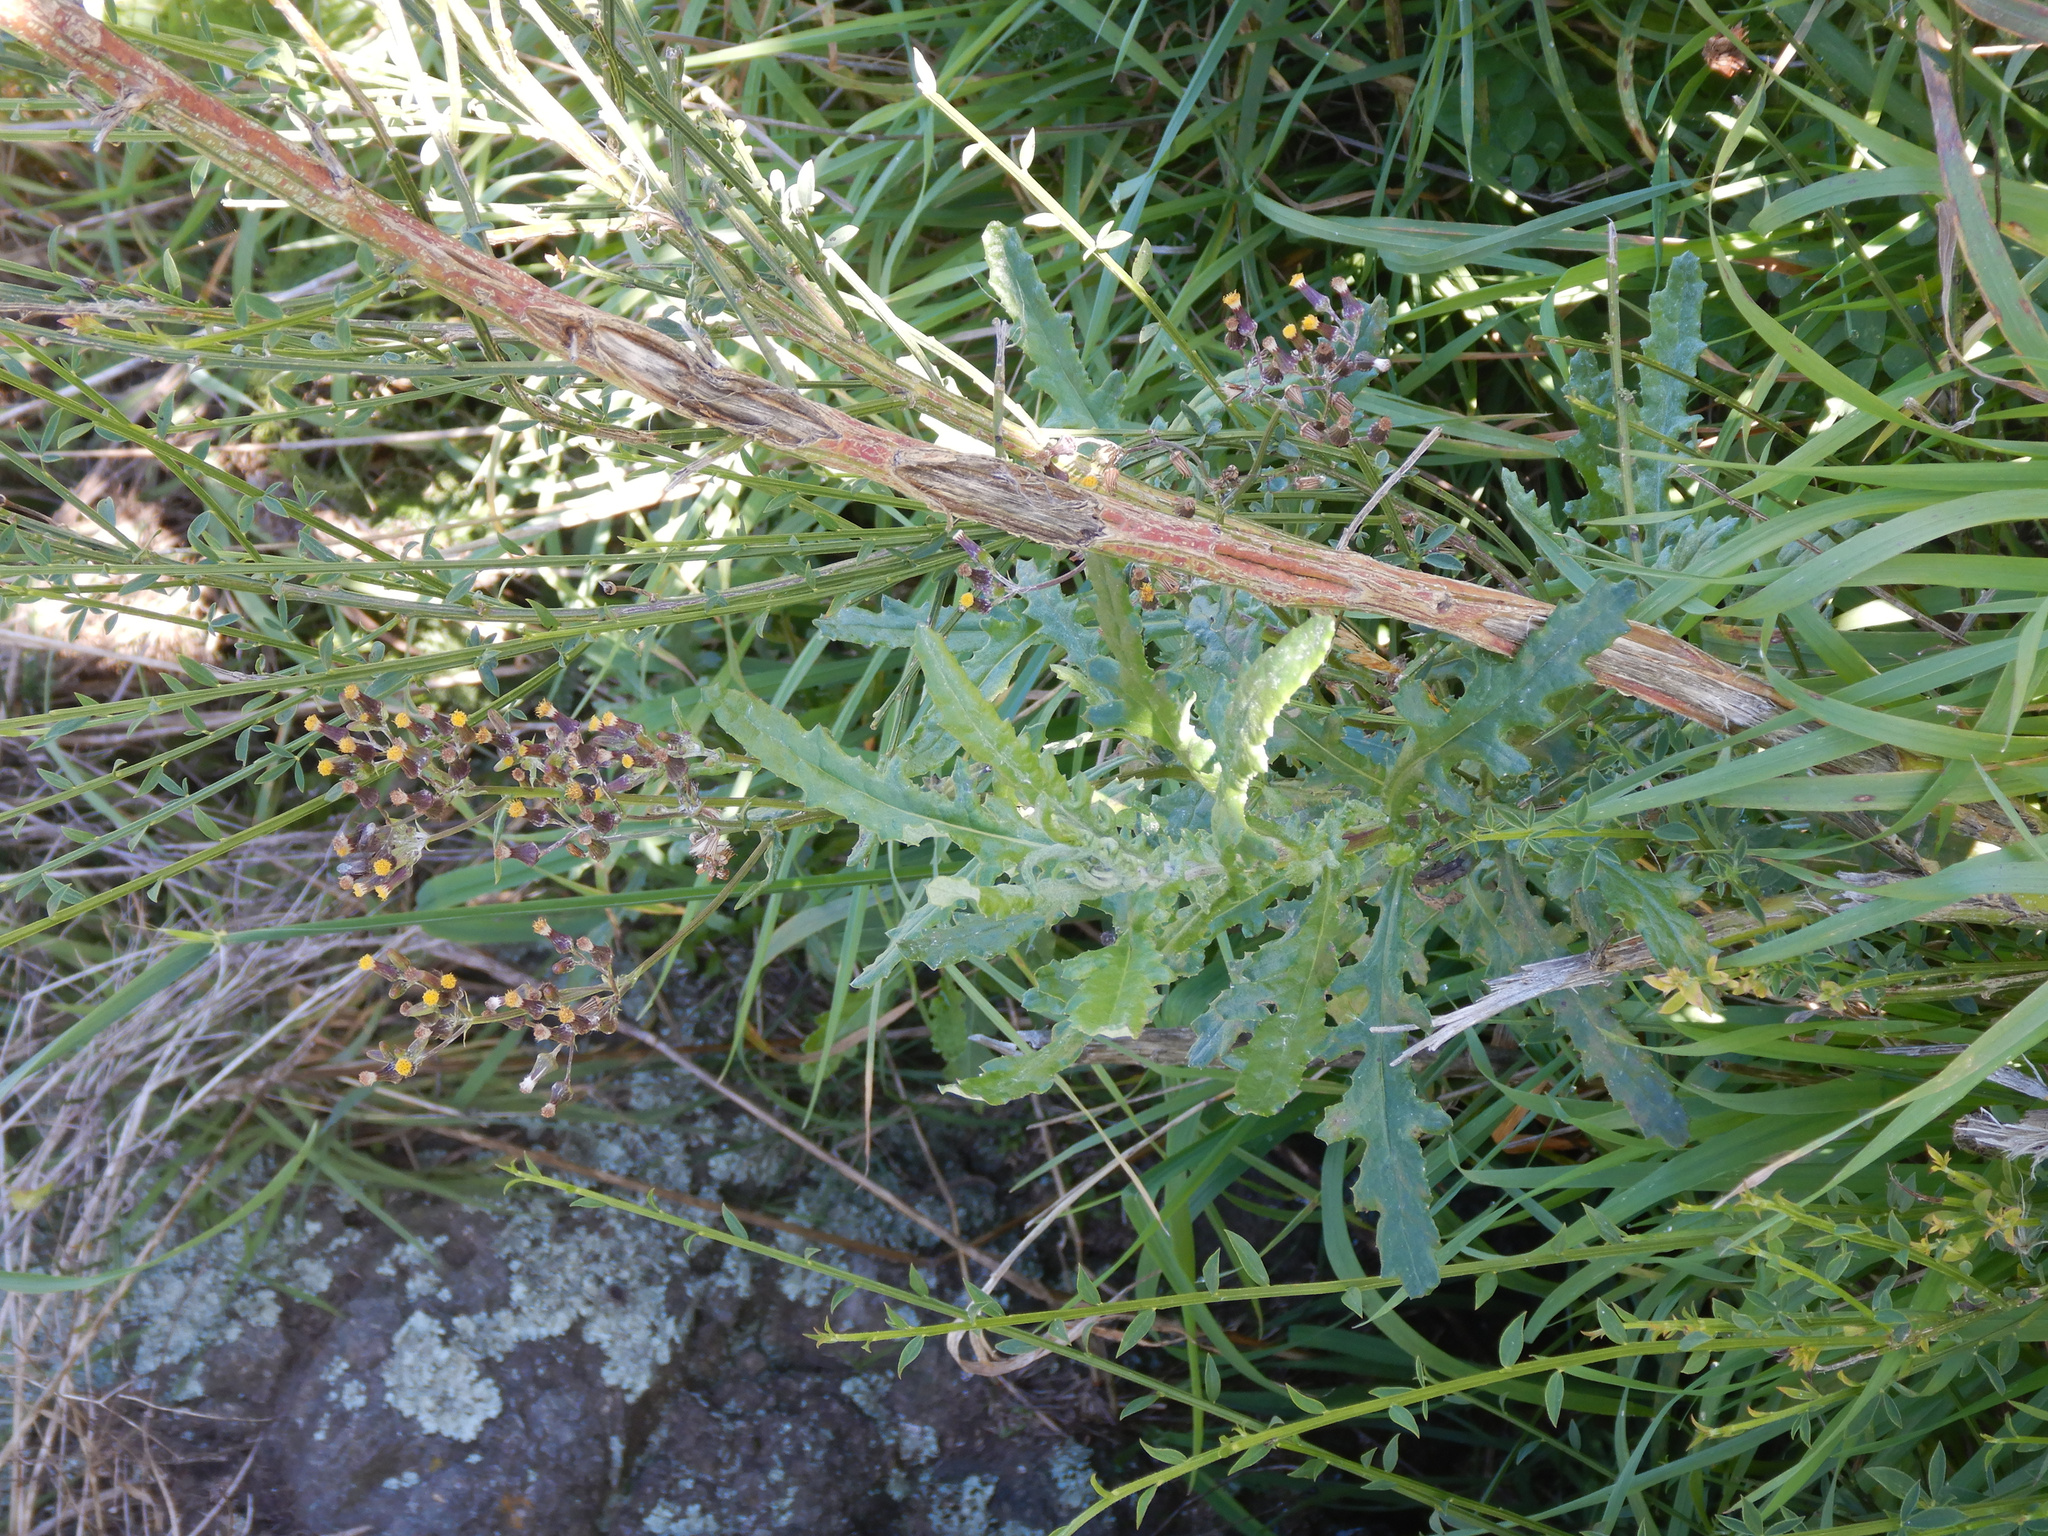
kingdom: Plantae
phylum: Tracheophyta
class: Magnoliopsida
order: Asterales
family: Asteraceae
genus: Senecio
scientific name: Senecio glomeratus
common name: Cutleaf burnweed
